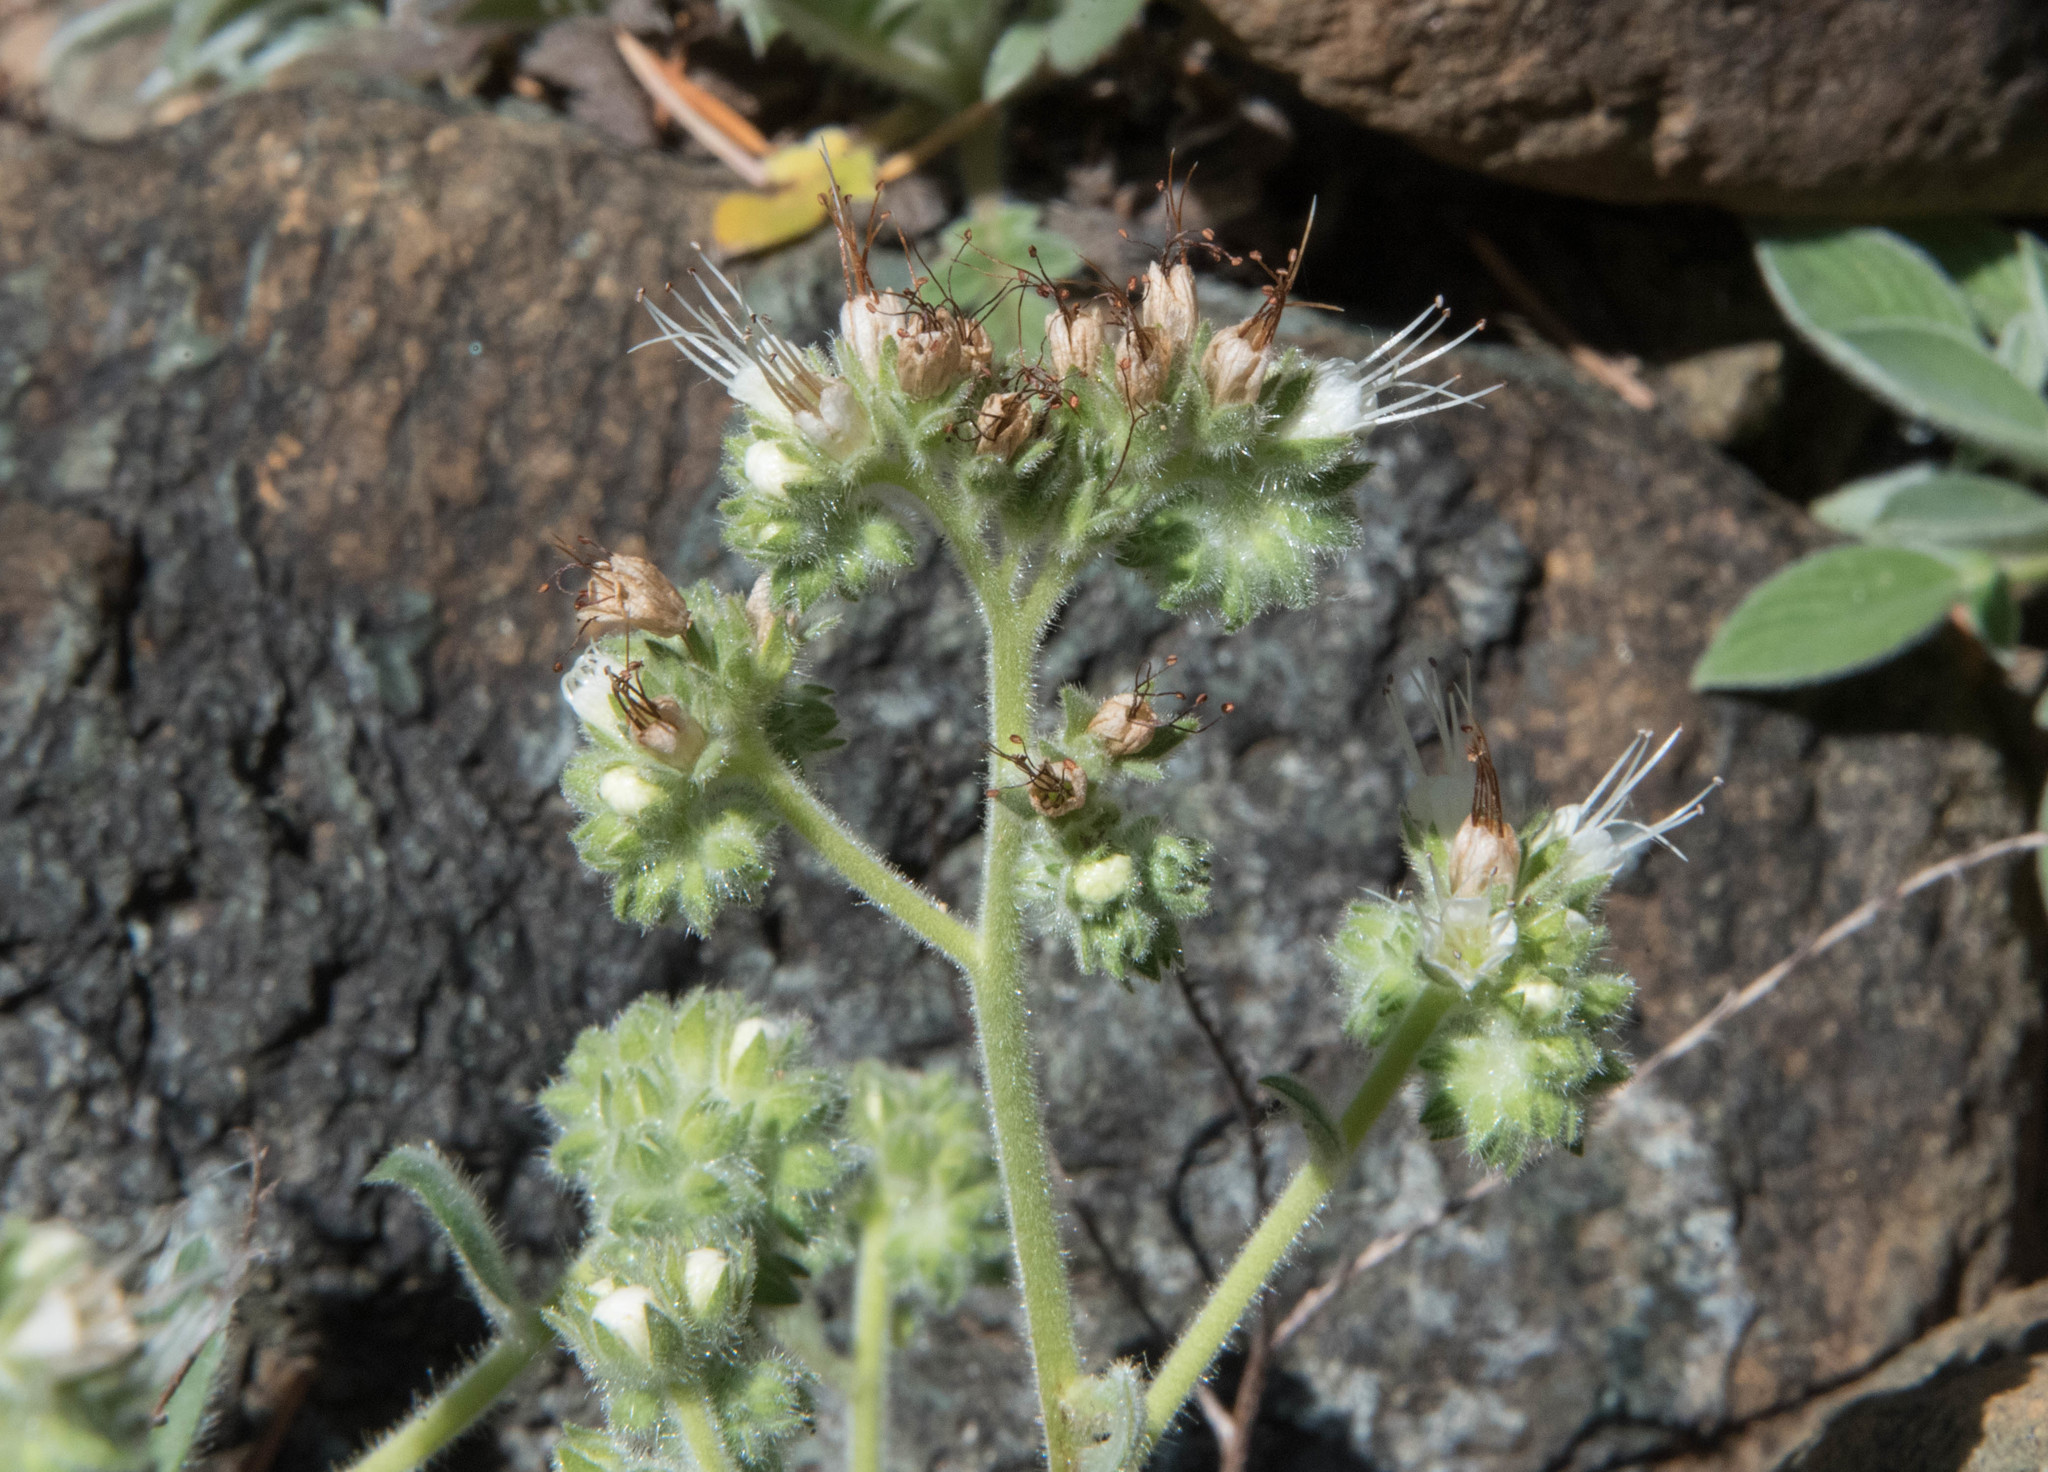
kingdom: Plantae
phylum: Tracheophyta
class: Magnoliopsida
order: Boraginales
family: Hydrophyllaceae
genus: Phacelia
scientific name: Phacelia corymbosa
